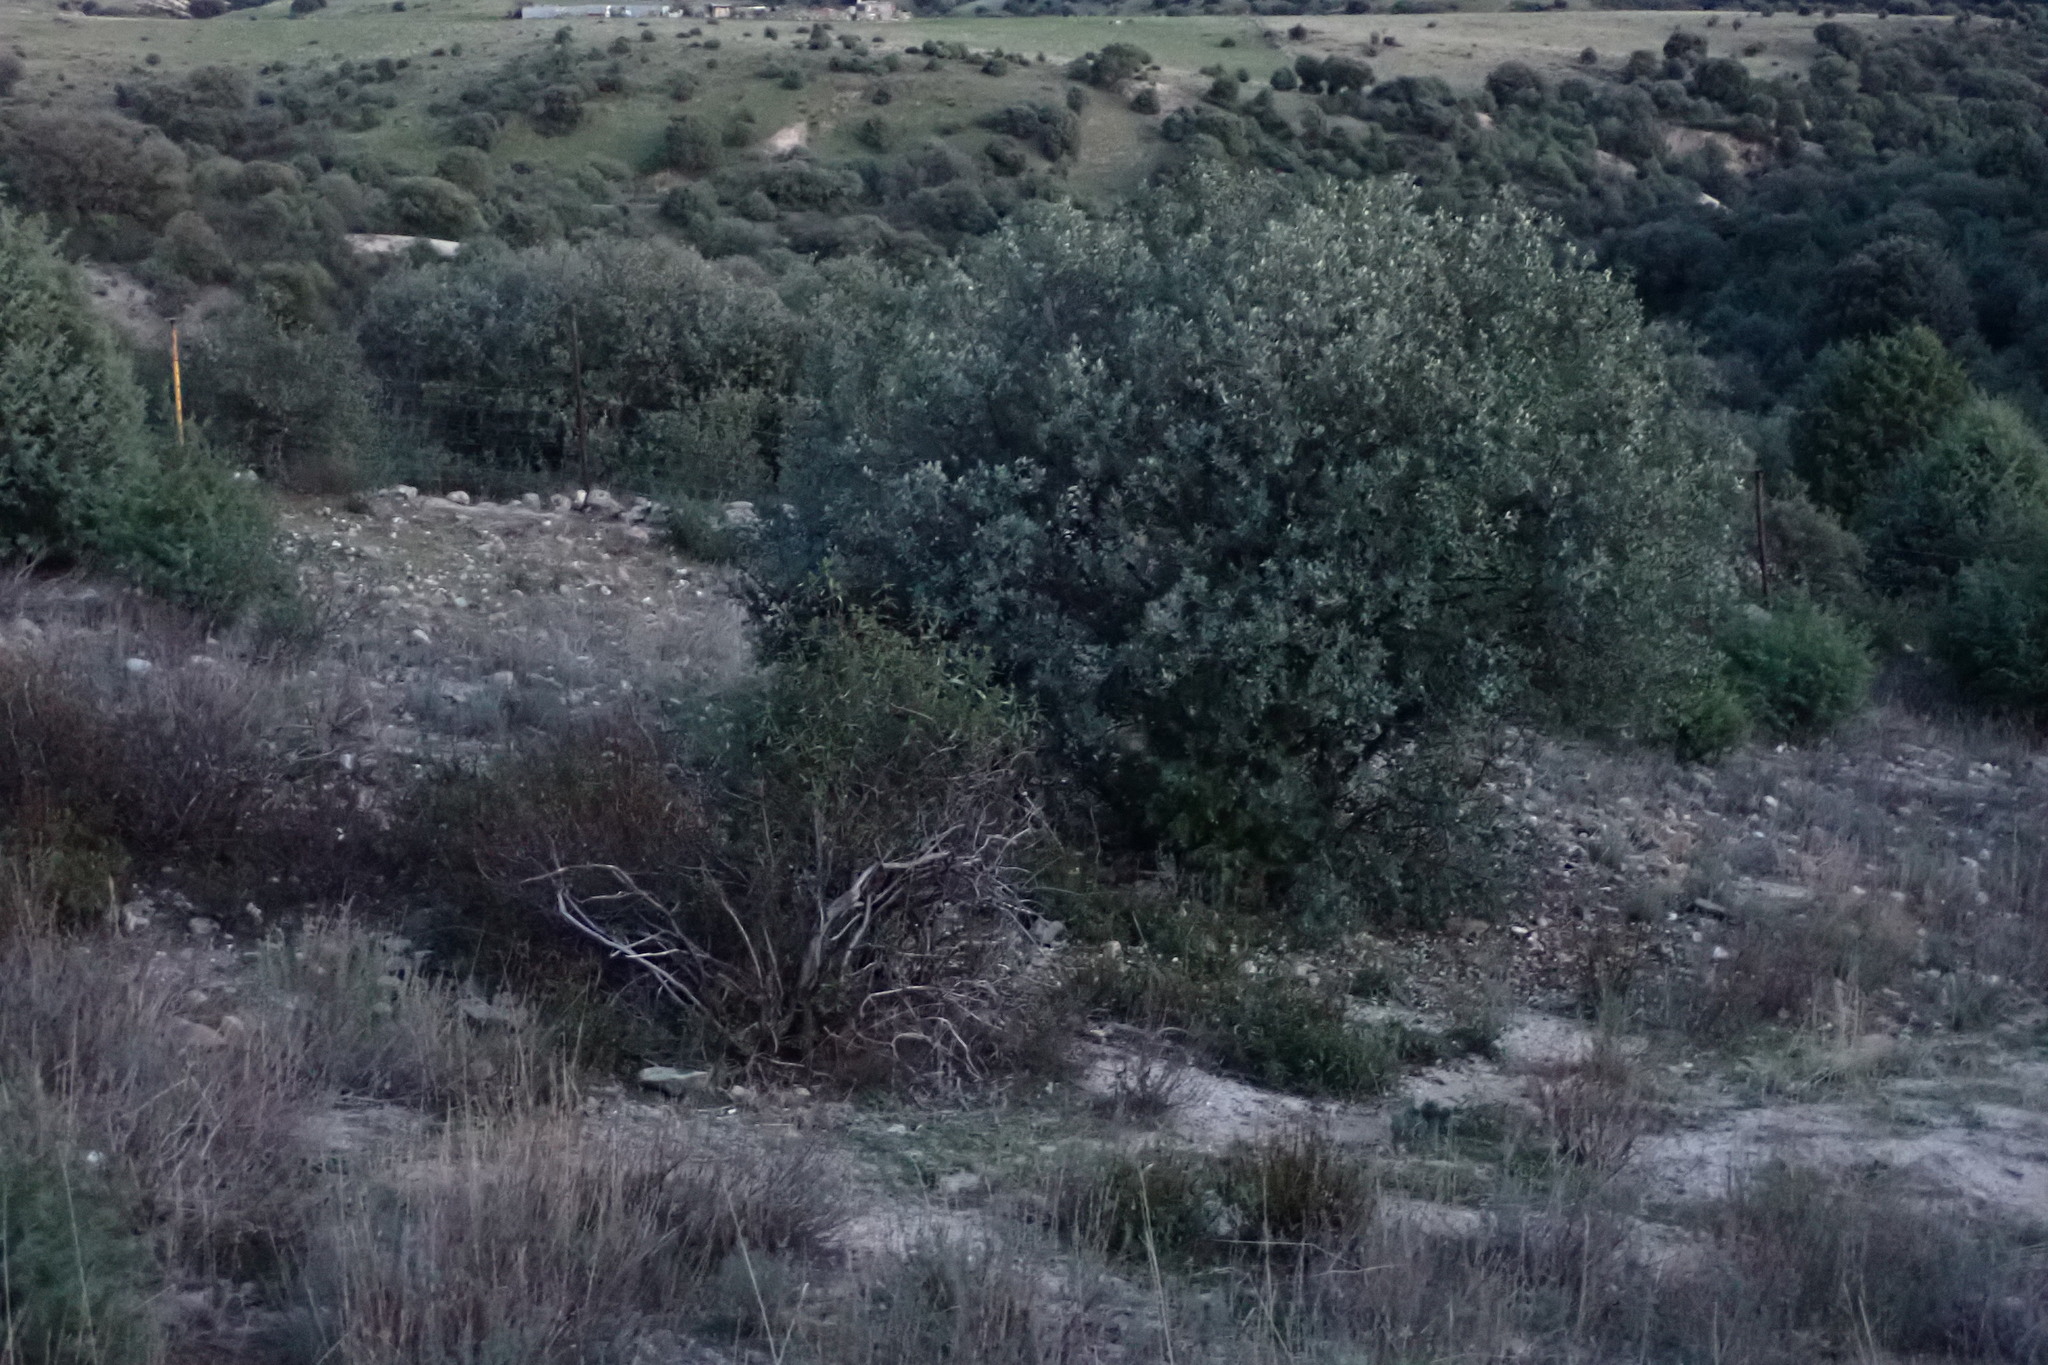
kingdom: Plantae
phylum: Tracheophyta
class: Magnoliopsida
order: Fagales
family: Fagaceae
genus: Quercus
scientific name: Quercus rotundifolia
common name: Holm oak
